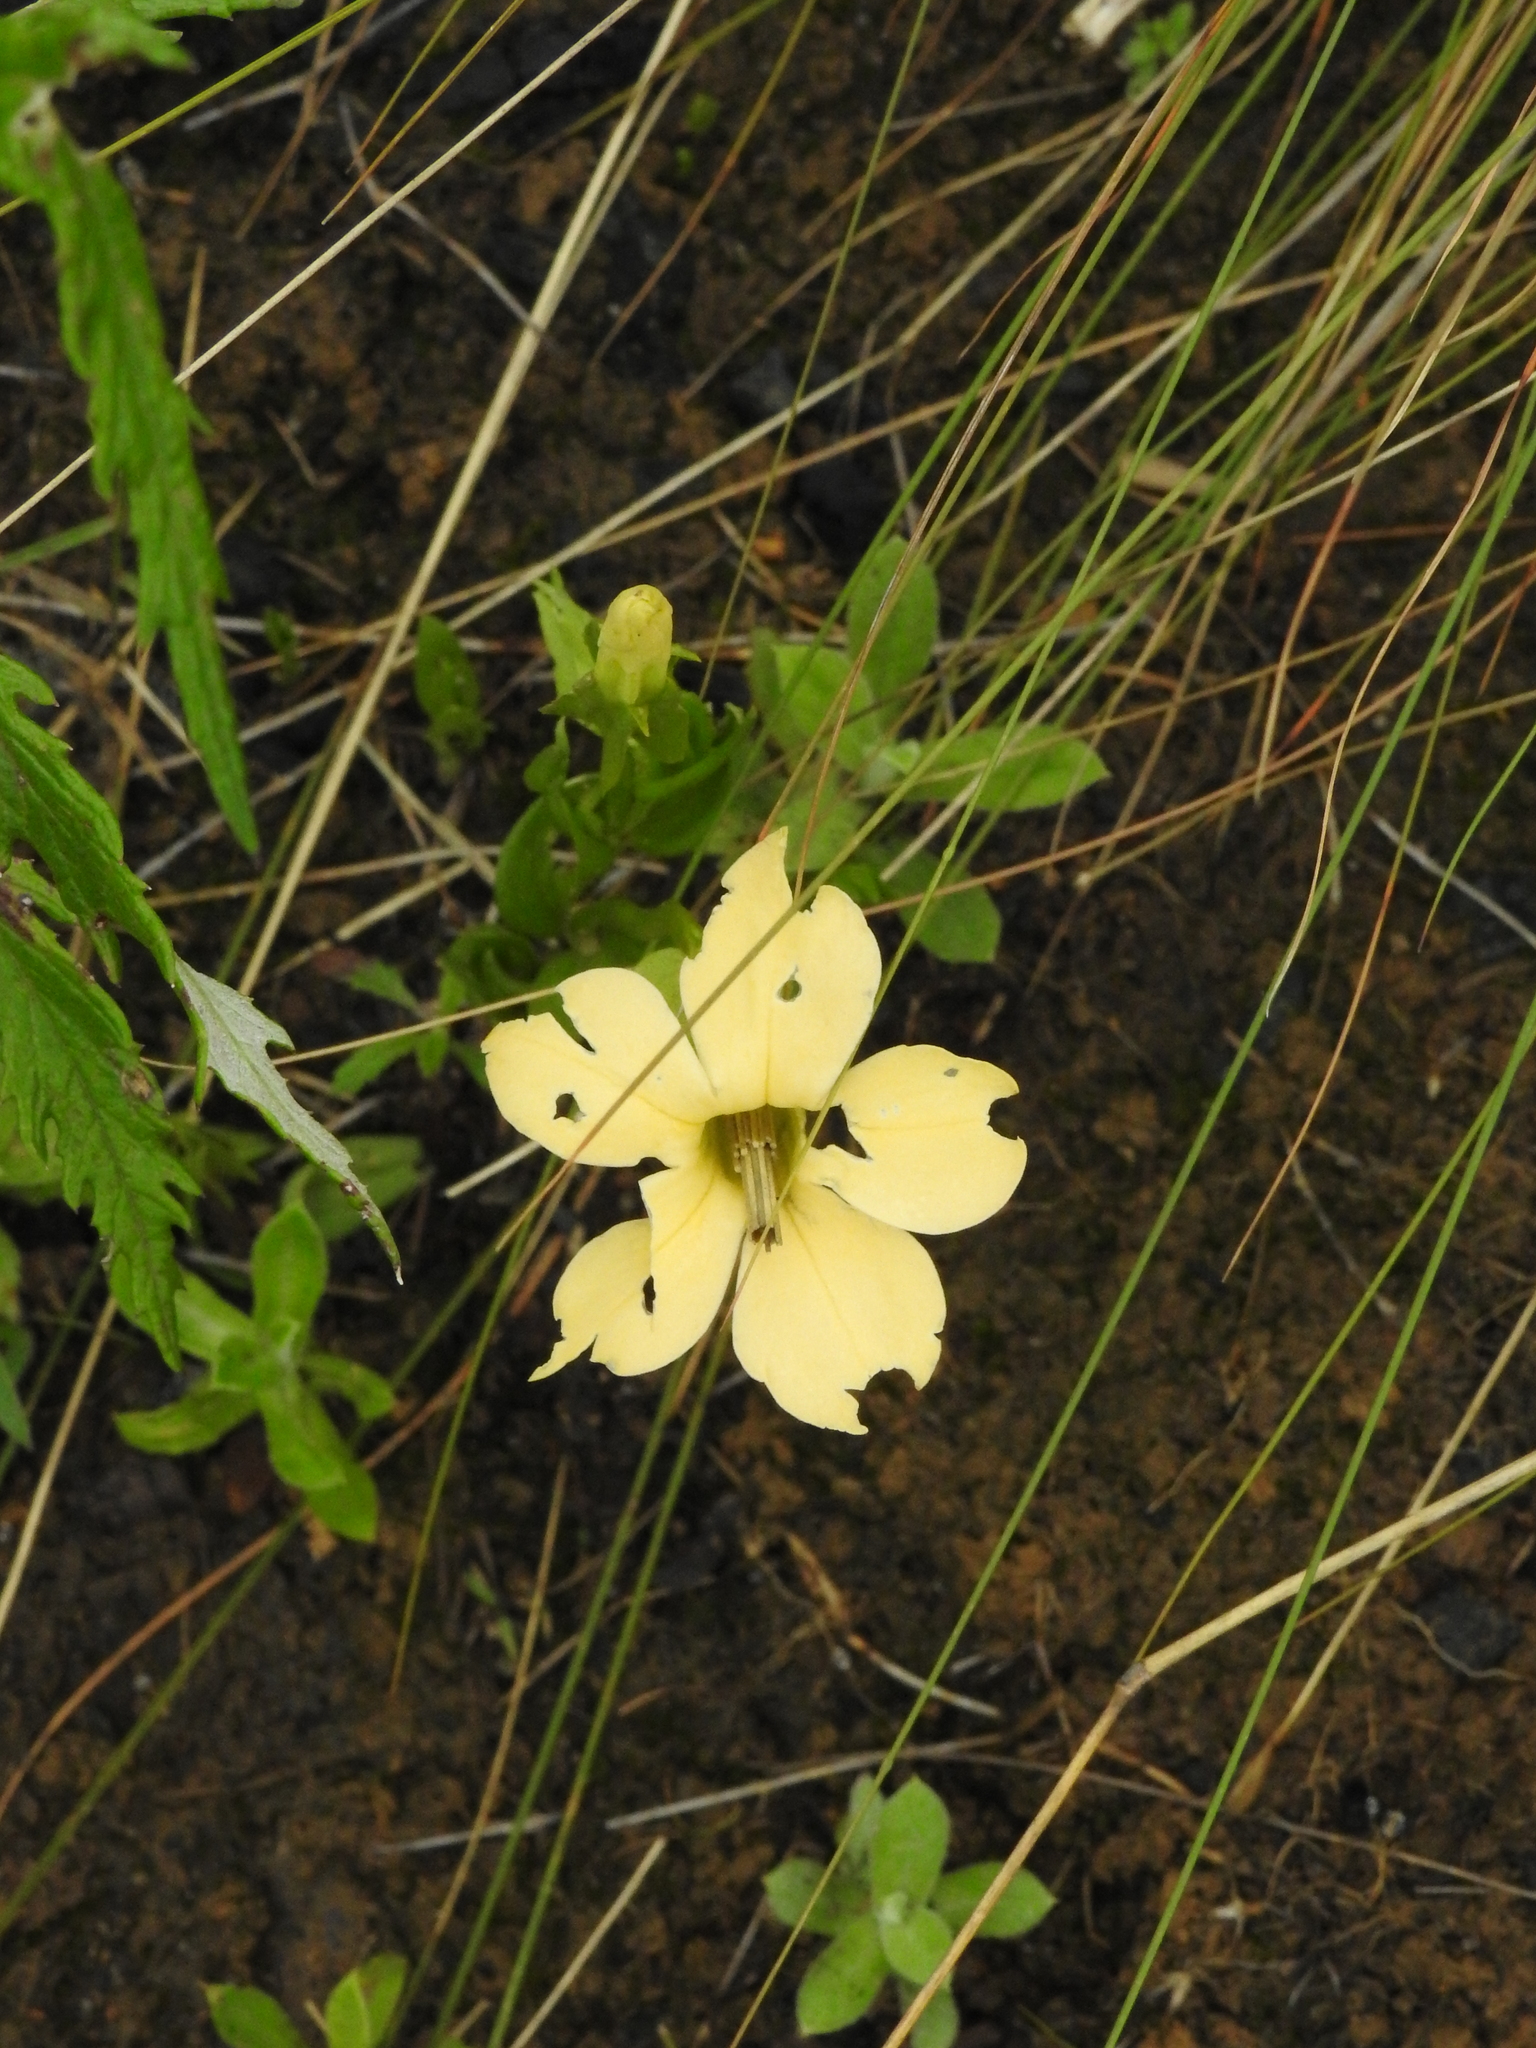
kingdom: Plantae
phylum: Tracheophyta
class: Magnoliopsida
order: Gentianales
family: Gentianaceae
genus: Exochaenium
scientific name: Exochaenium grande
